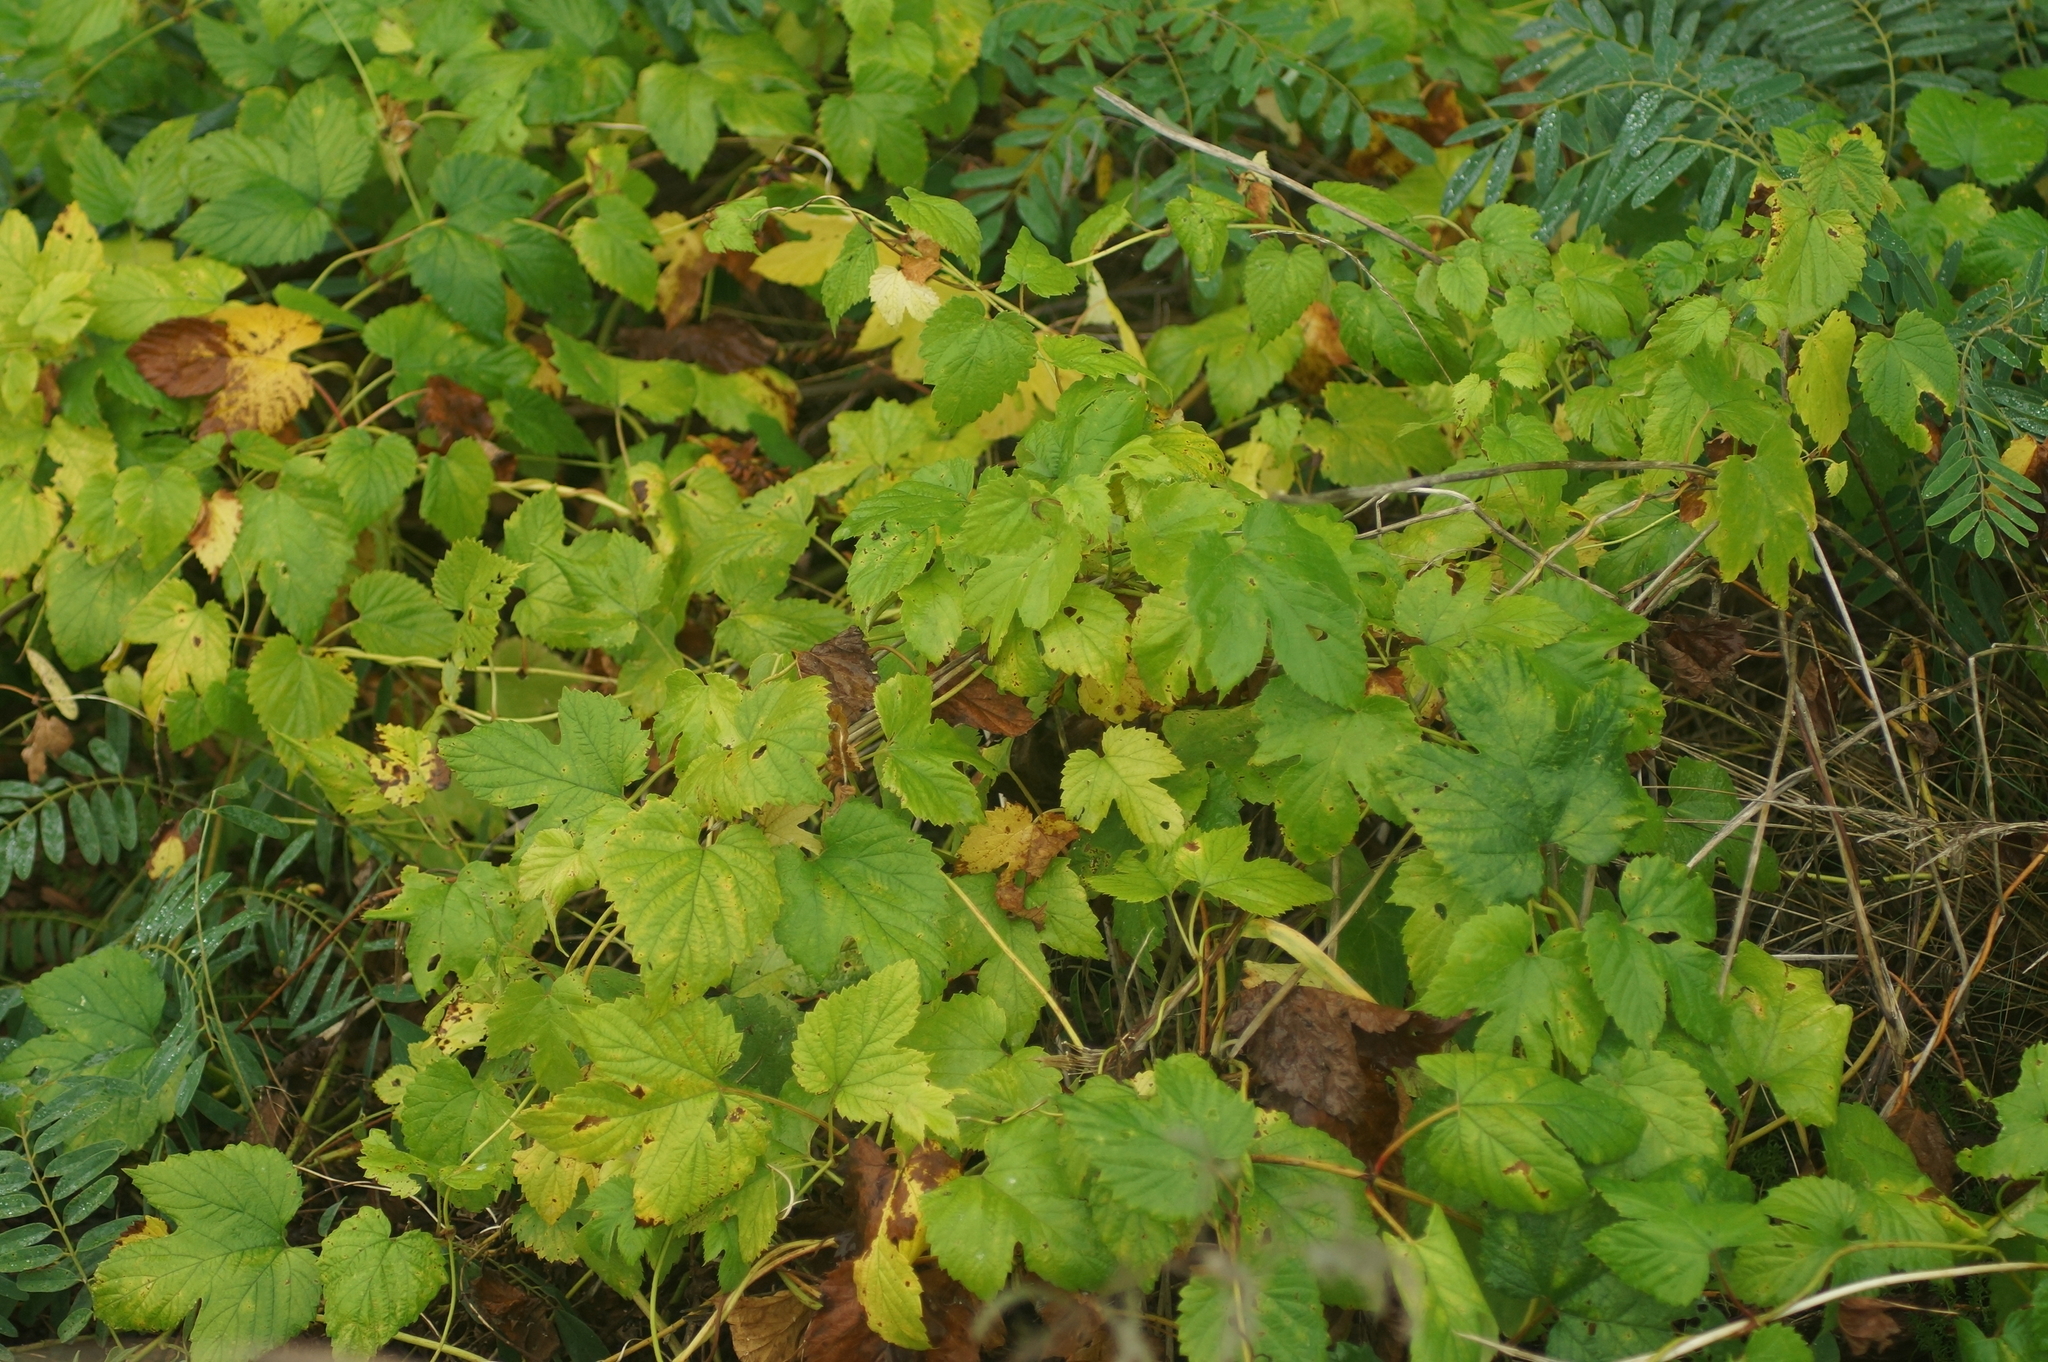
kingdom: Plantae
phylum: Tracheophyta
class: Magnoliopsida
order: Rosales
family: Cannabaceae
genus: Humulus
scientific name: Humulus lupulus
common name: Hop
